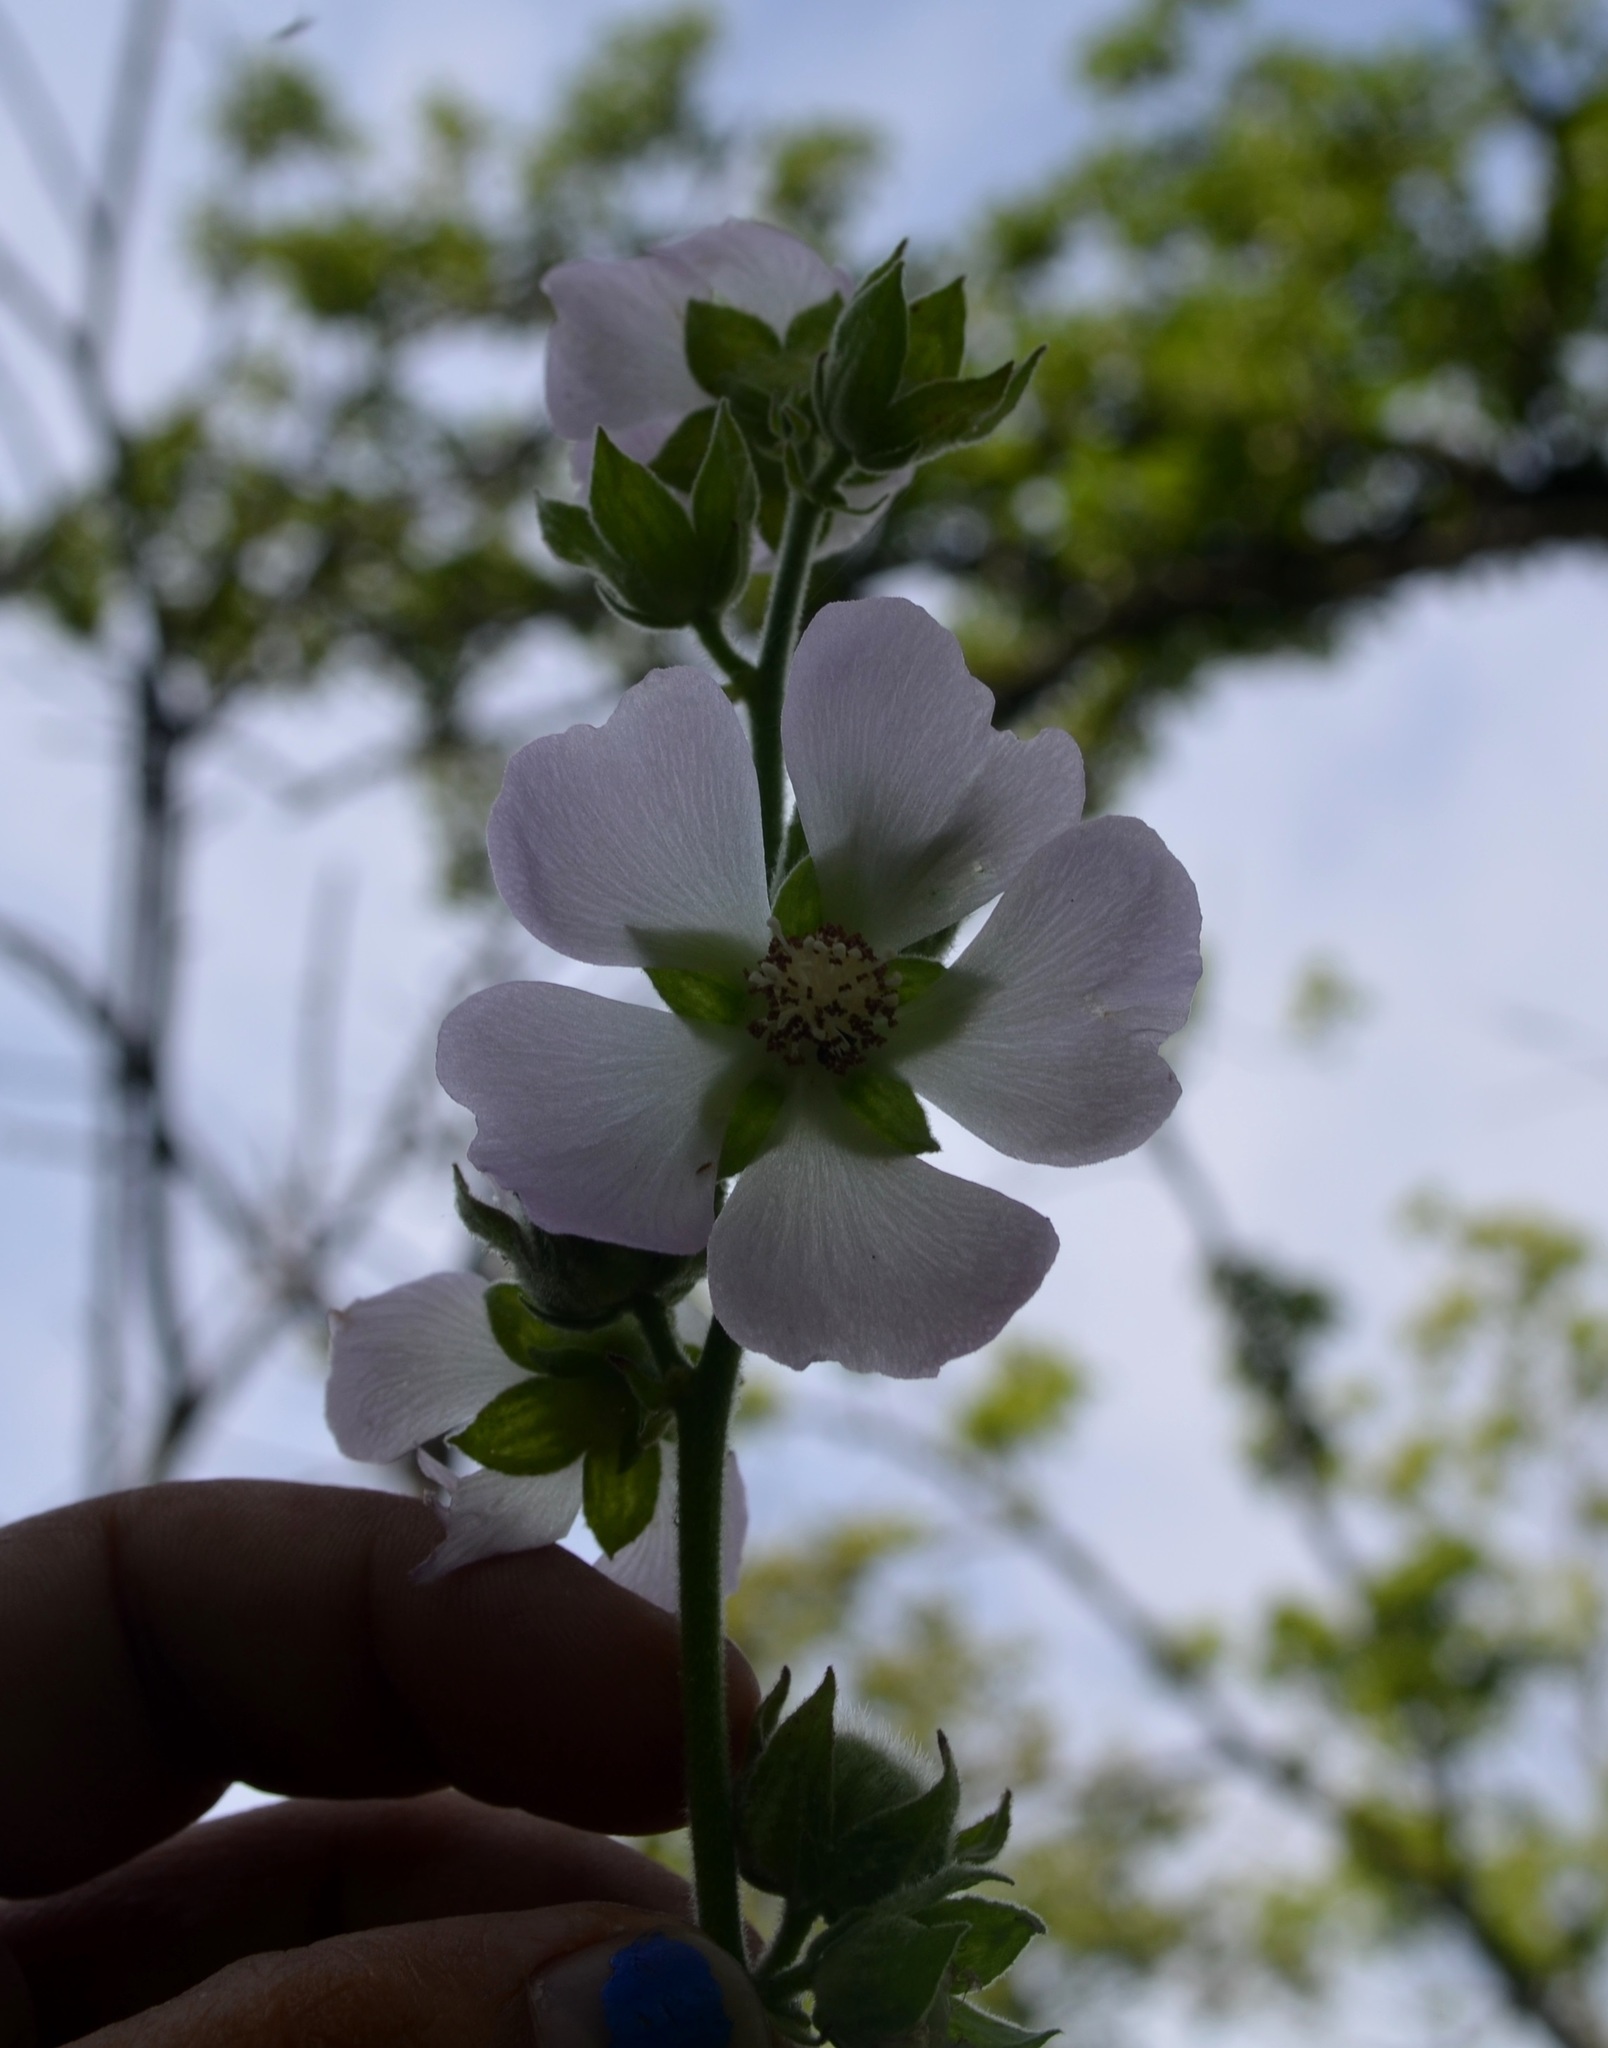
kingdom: Plantae
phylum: Tracheophyta
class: Magnoliopsida
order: Malvales
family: Malvaceae
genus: Iliamna
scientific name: Iliamna remota
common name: Kankakee globe-mallow
